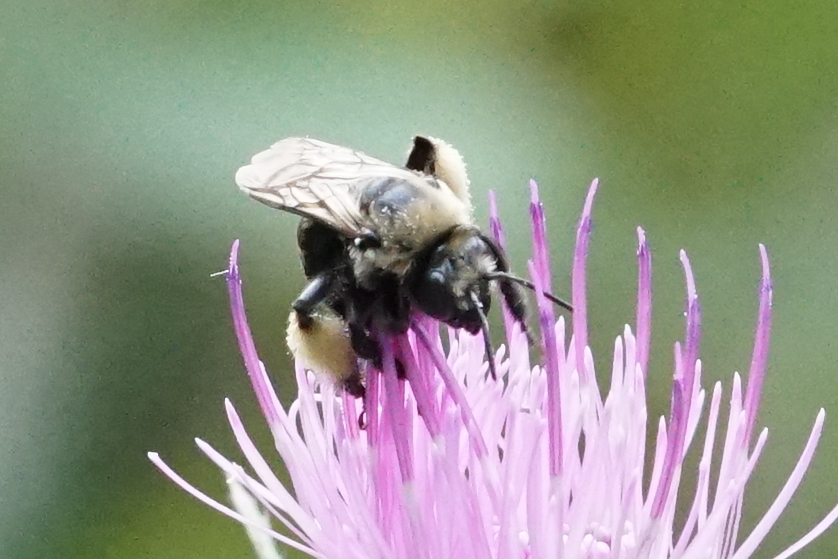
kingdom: Animalia
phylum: Arthropoda
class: Insecta
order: Hymenoptera
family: Apidae
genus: Melissodes
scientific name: Melissodes desponsus
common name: Thistle long-horned bee
